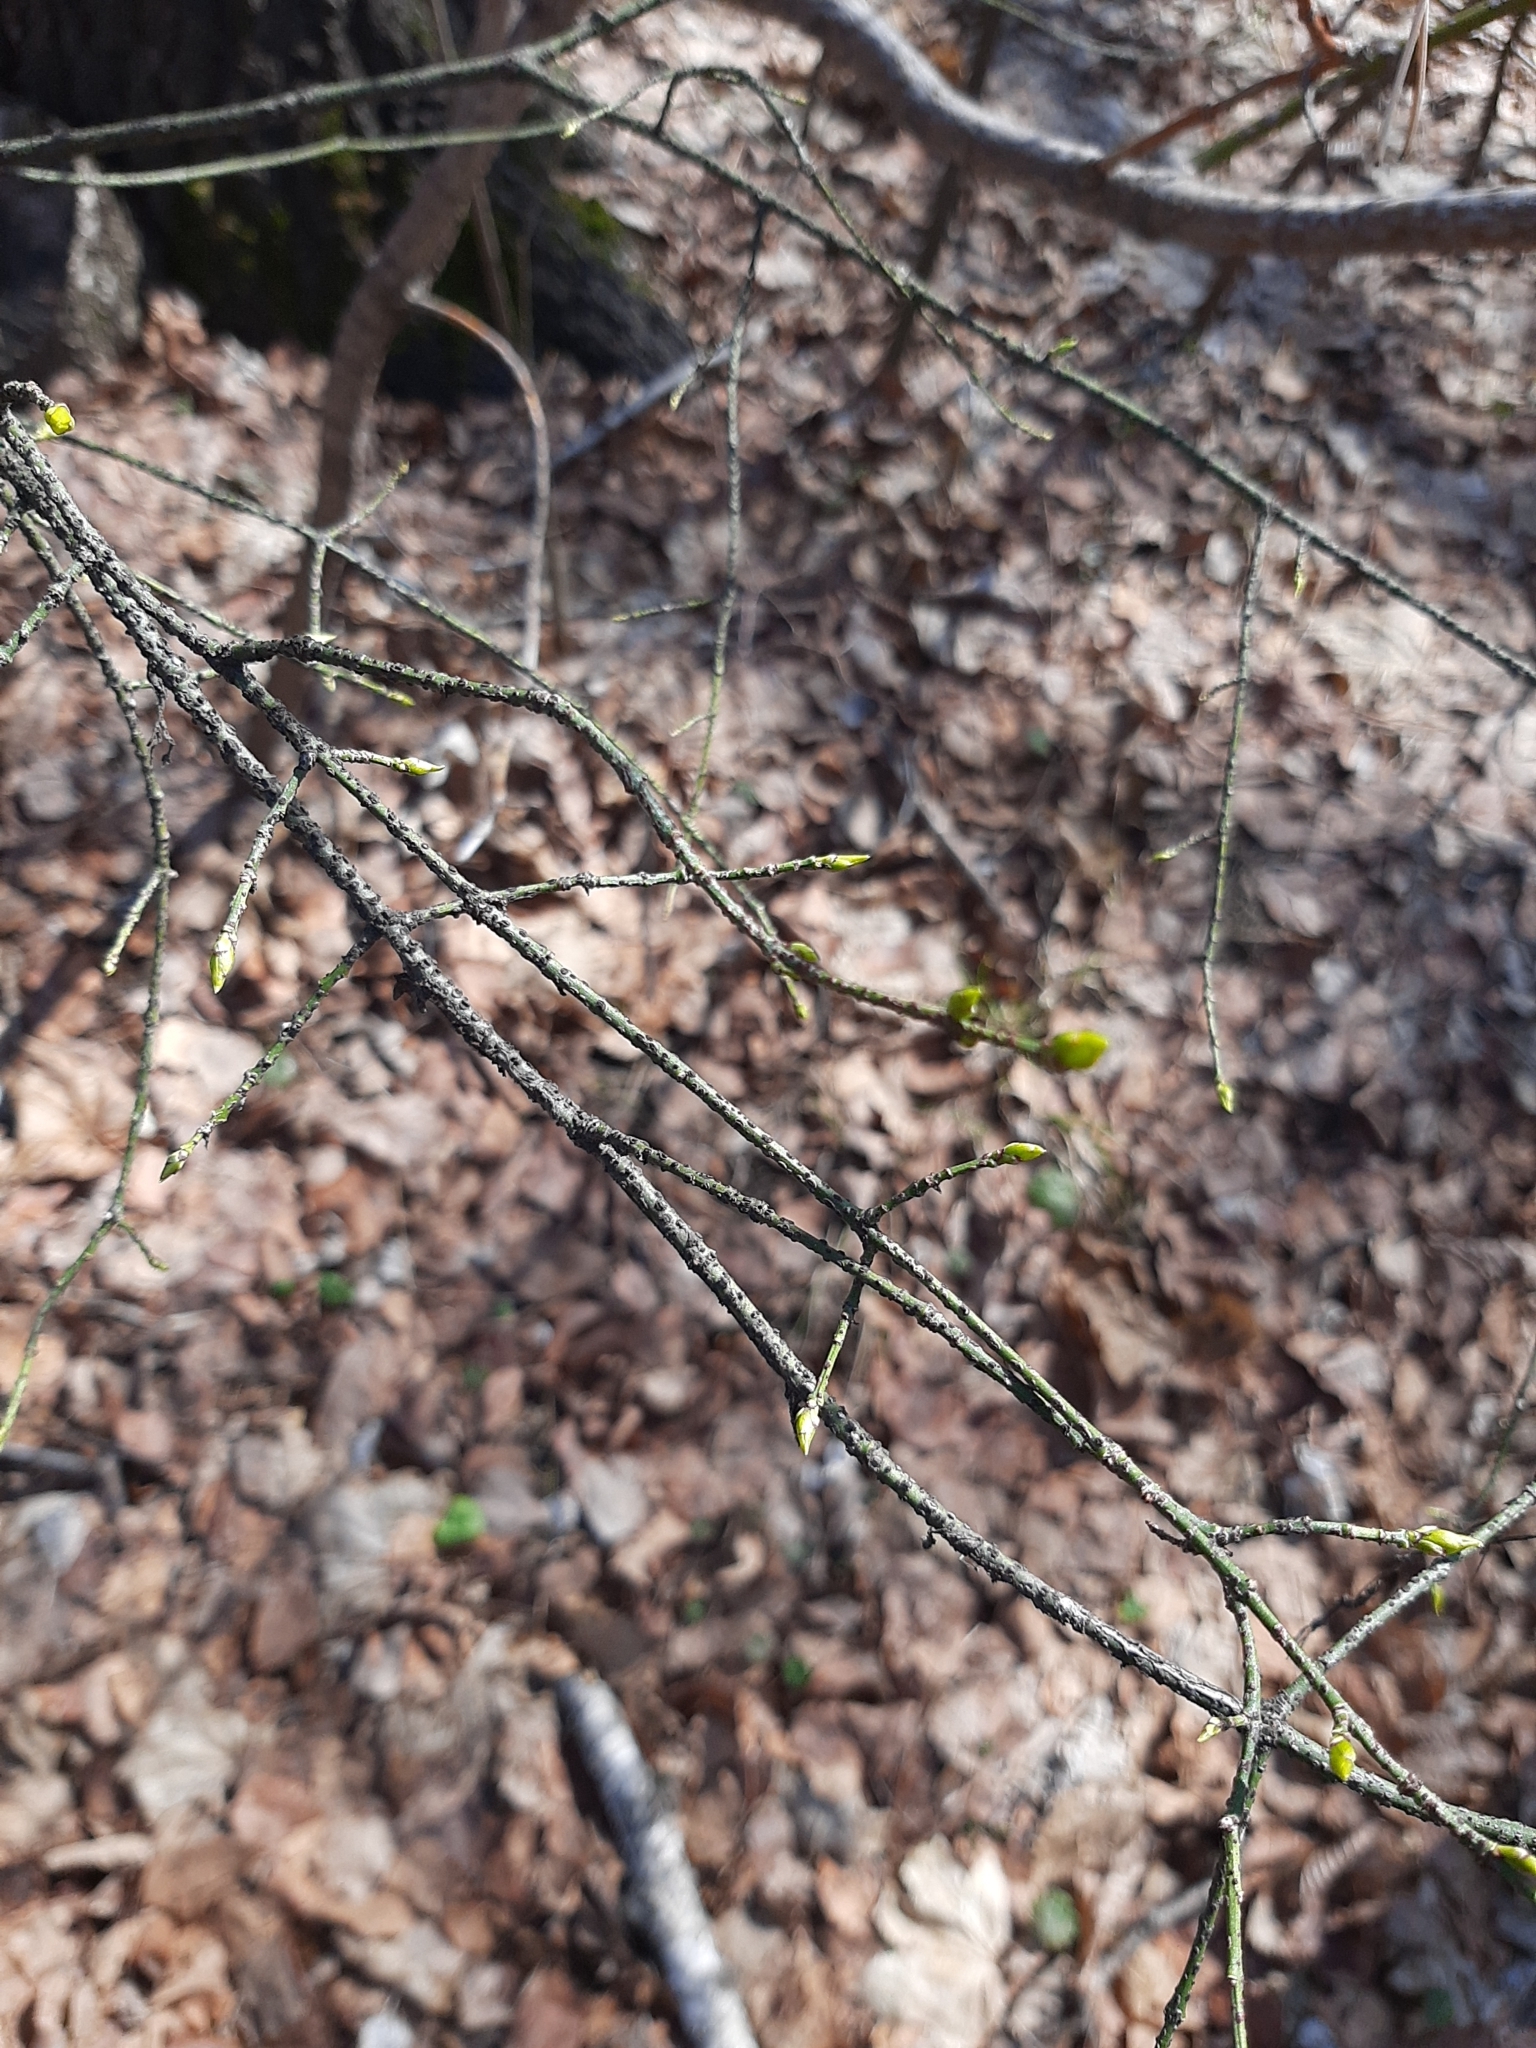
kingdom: Plantae
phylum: Tracheophyta
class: Magnoliopsida
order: Celastrales
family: Celastraceae
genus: Euonymus
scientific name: Euonymus verrucosus
